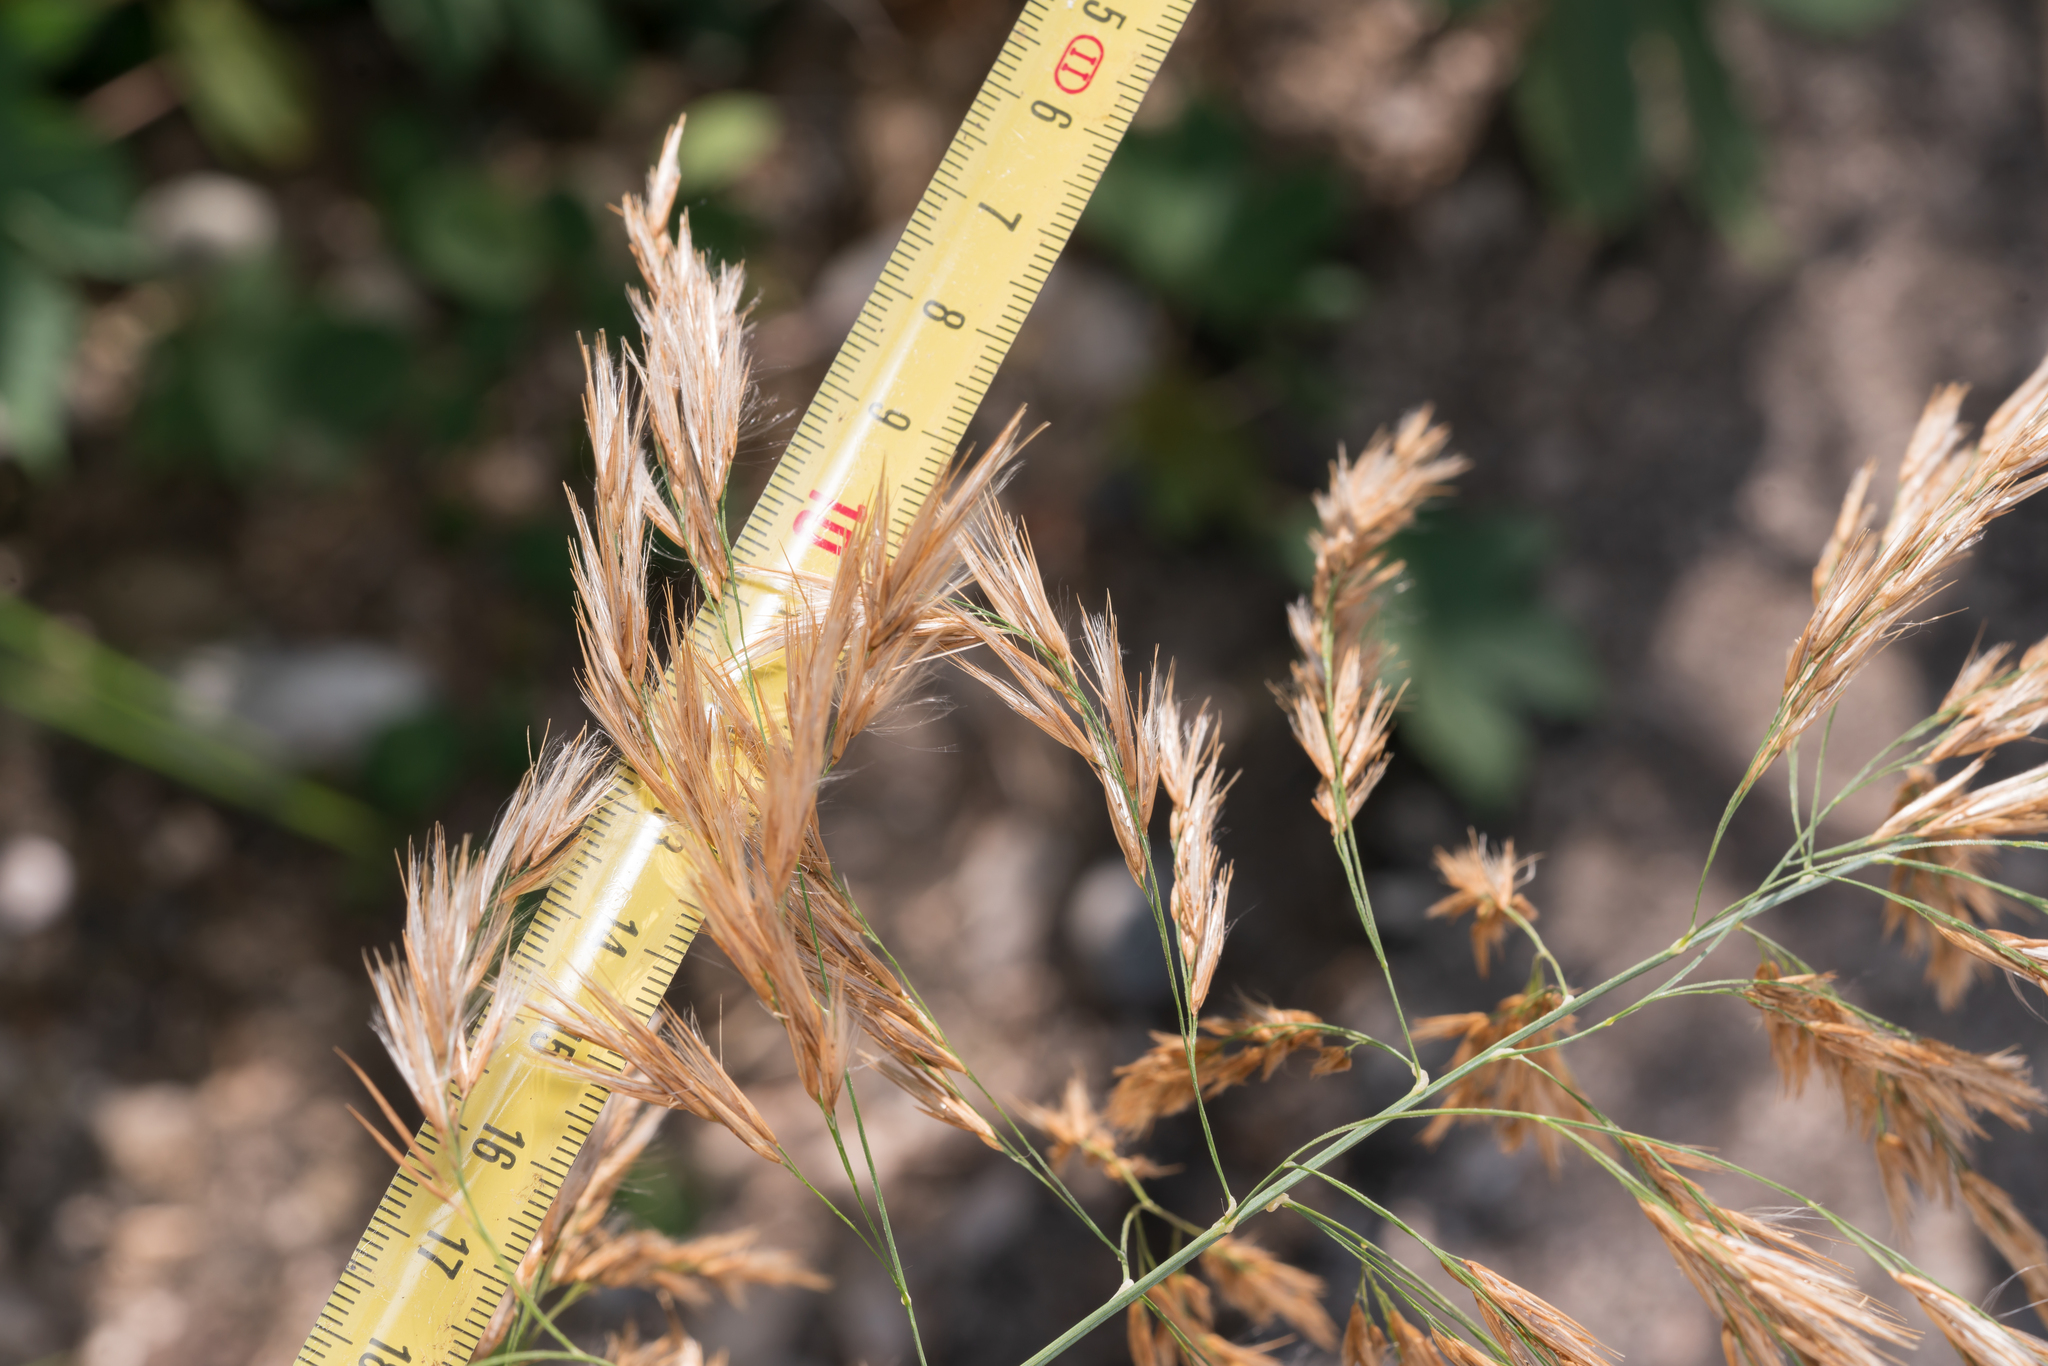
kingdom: Plantae
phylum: Tracheophyta
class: Liliopsida
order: Poales
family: Poaceae
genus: Phragmites
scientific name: Phragmites australis
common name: Common reed
